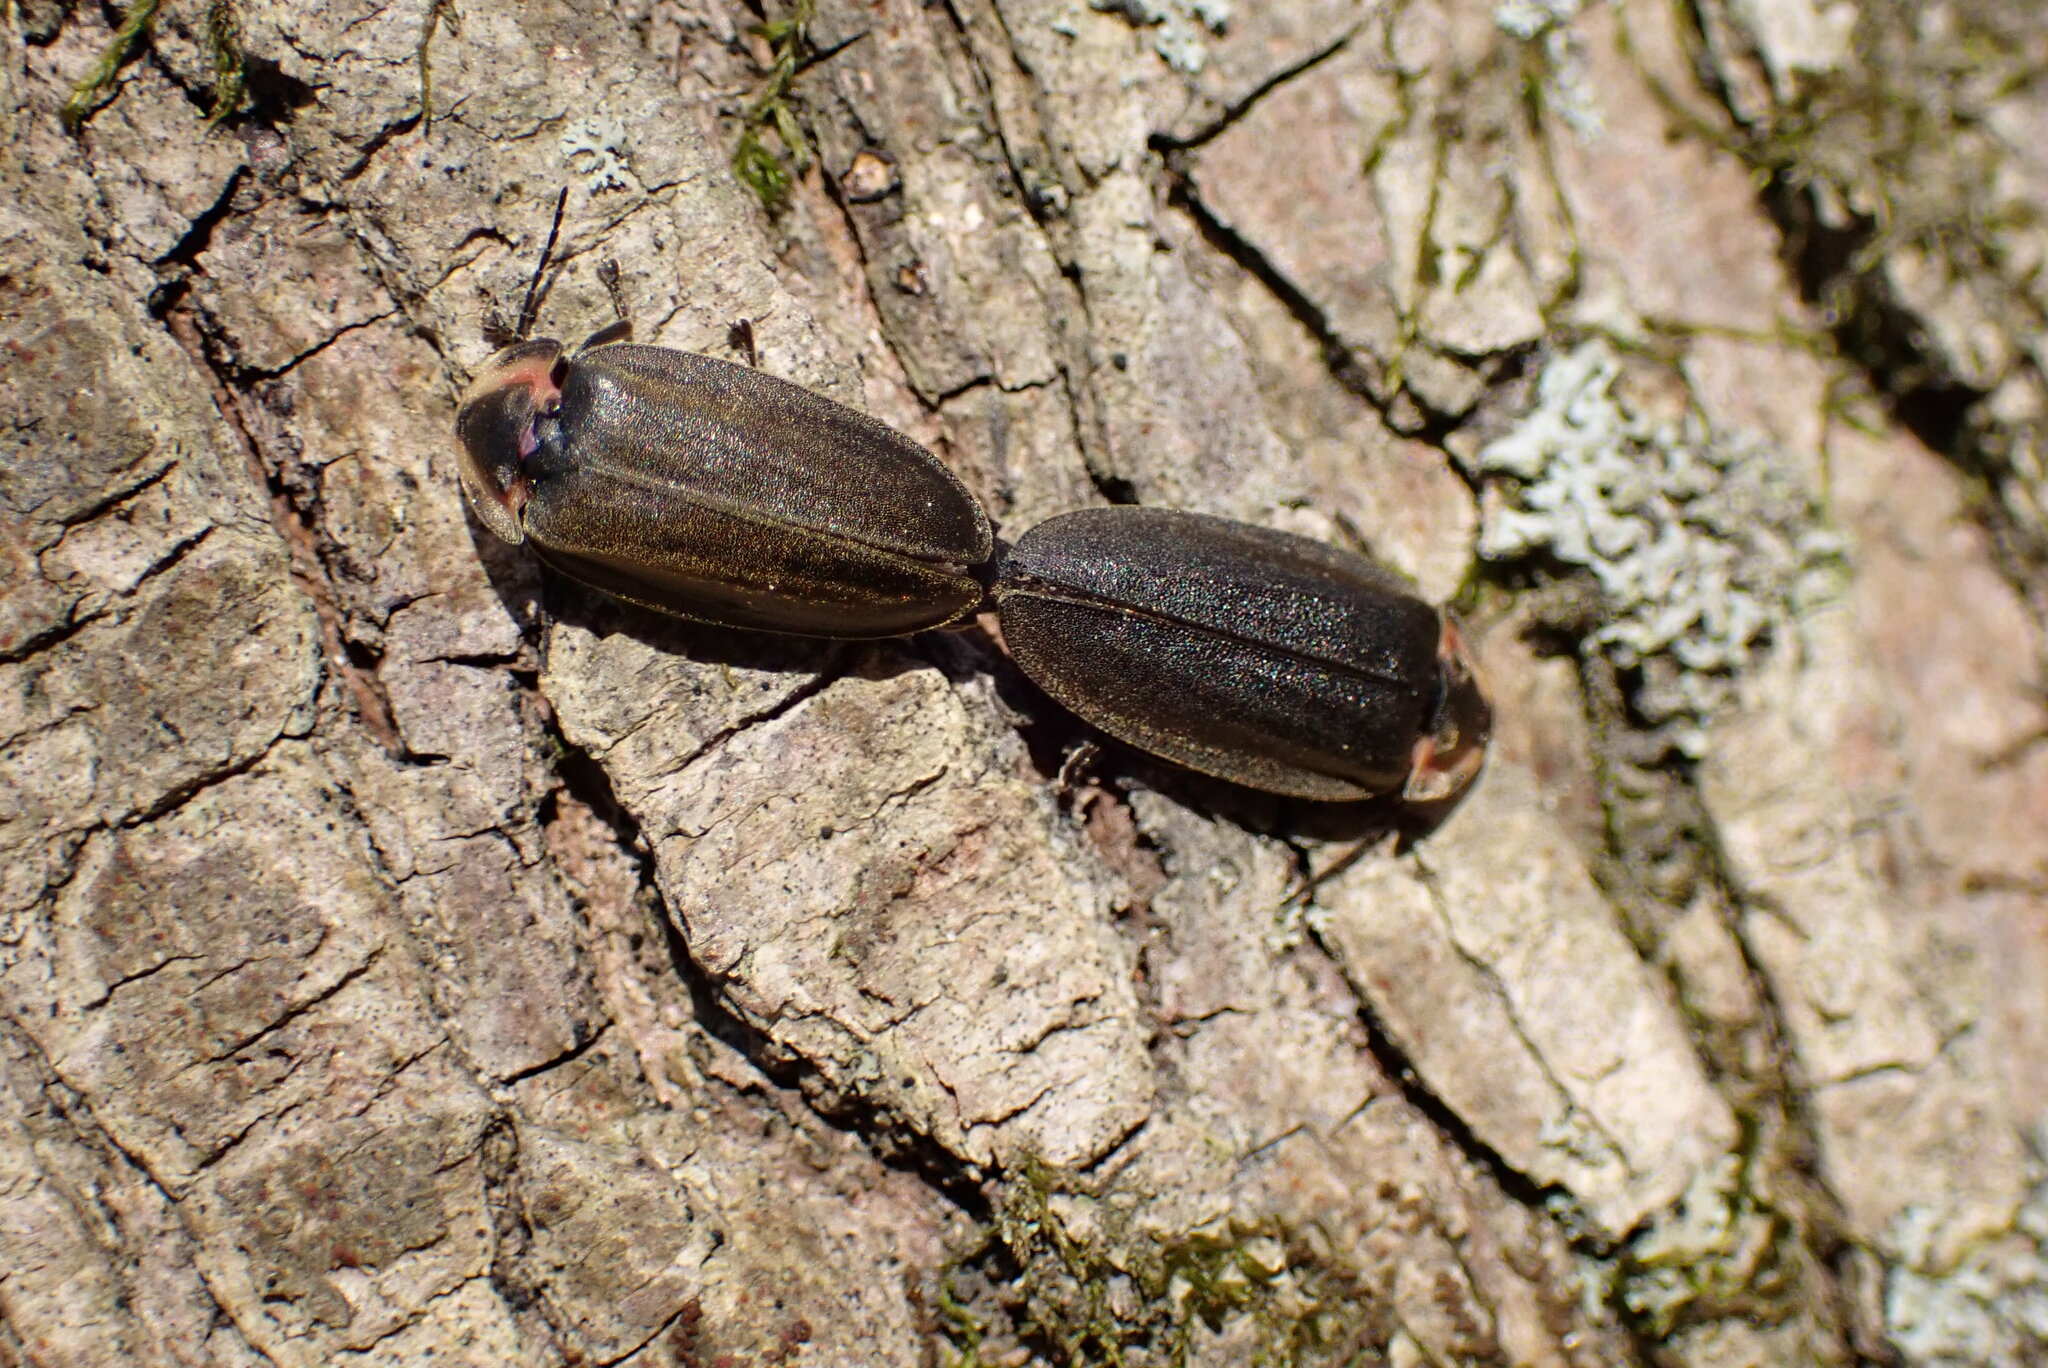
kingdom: Animalia
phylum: Arthropoda
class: Insecta
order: Coleoptera
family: Lampyridae
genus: Photinus
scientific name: Photinus corrusca
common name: Winter firefly
